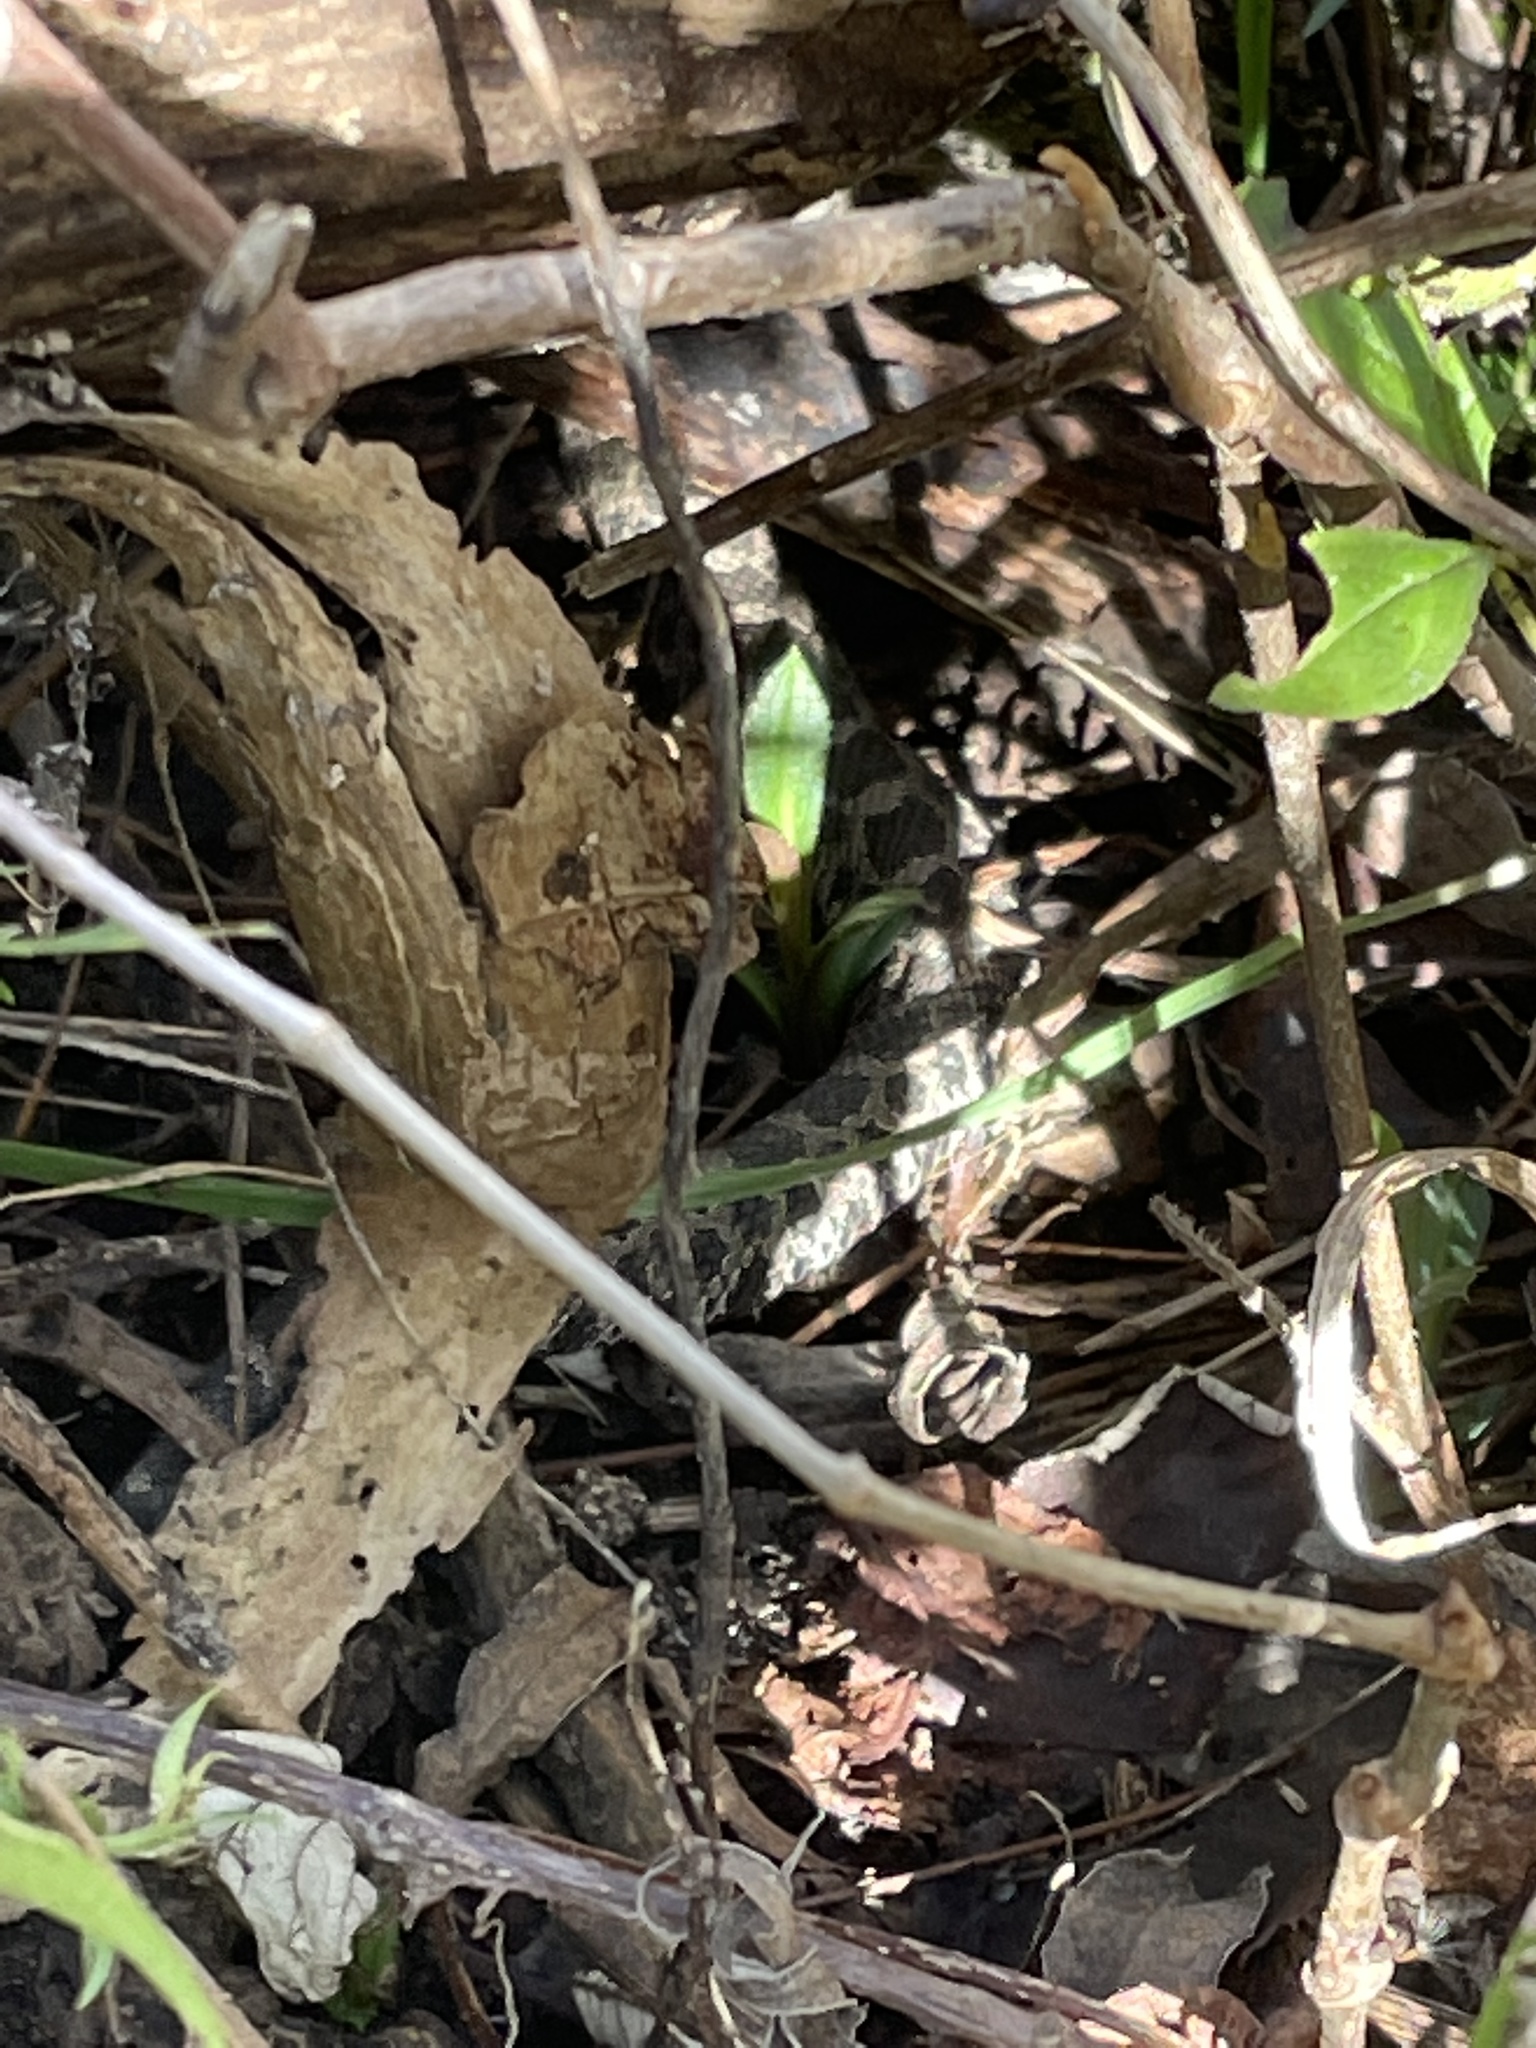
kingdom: Animalia
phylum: Chordata
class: Squamata
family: Viperidae
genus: Sistrurus
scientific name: Sistrurus catenatus
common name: Massasauga
